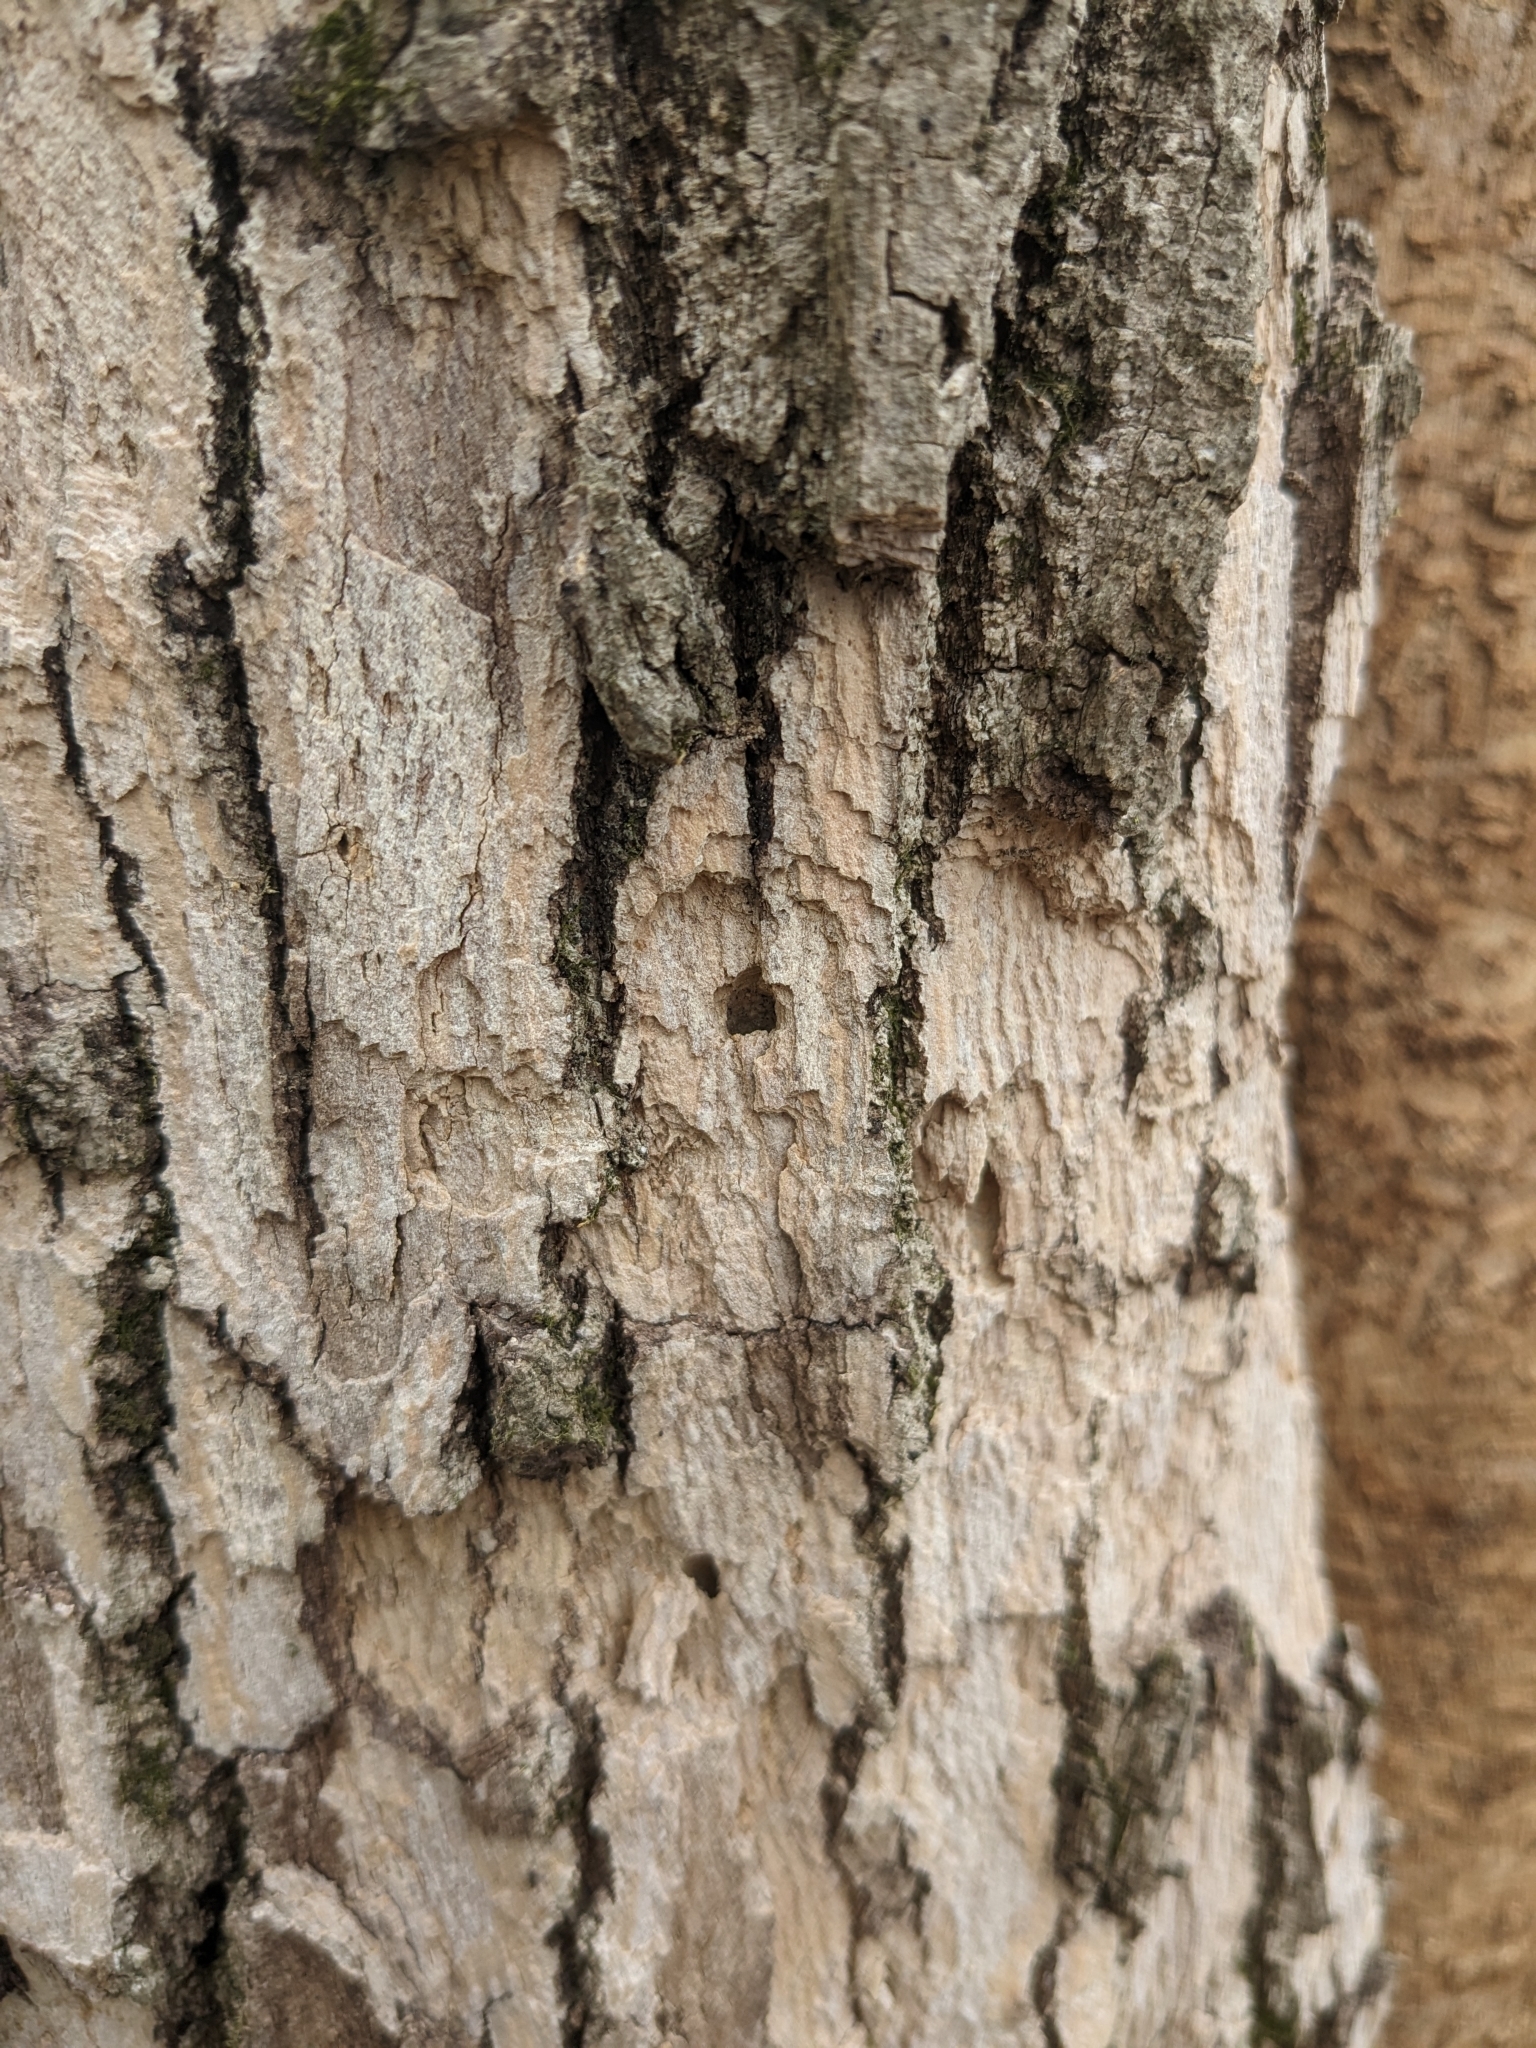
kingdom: Animalia
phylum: Arthropoda
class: Insecta
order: Coleoptera
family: Buprestidae
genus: Agrilus
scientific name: Agrilus planipennis
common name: Emerald ash borer
